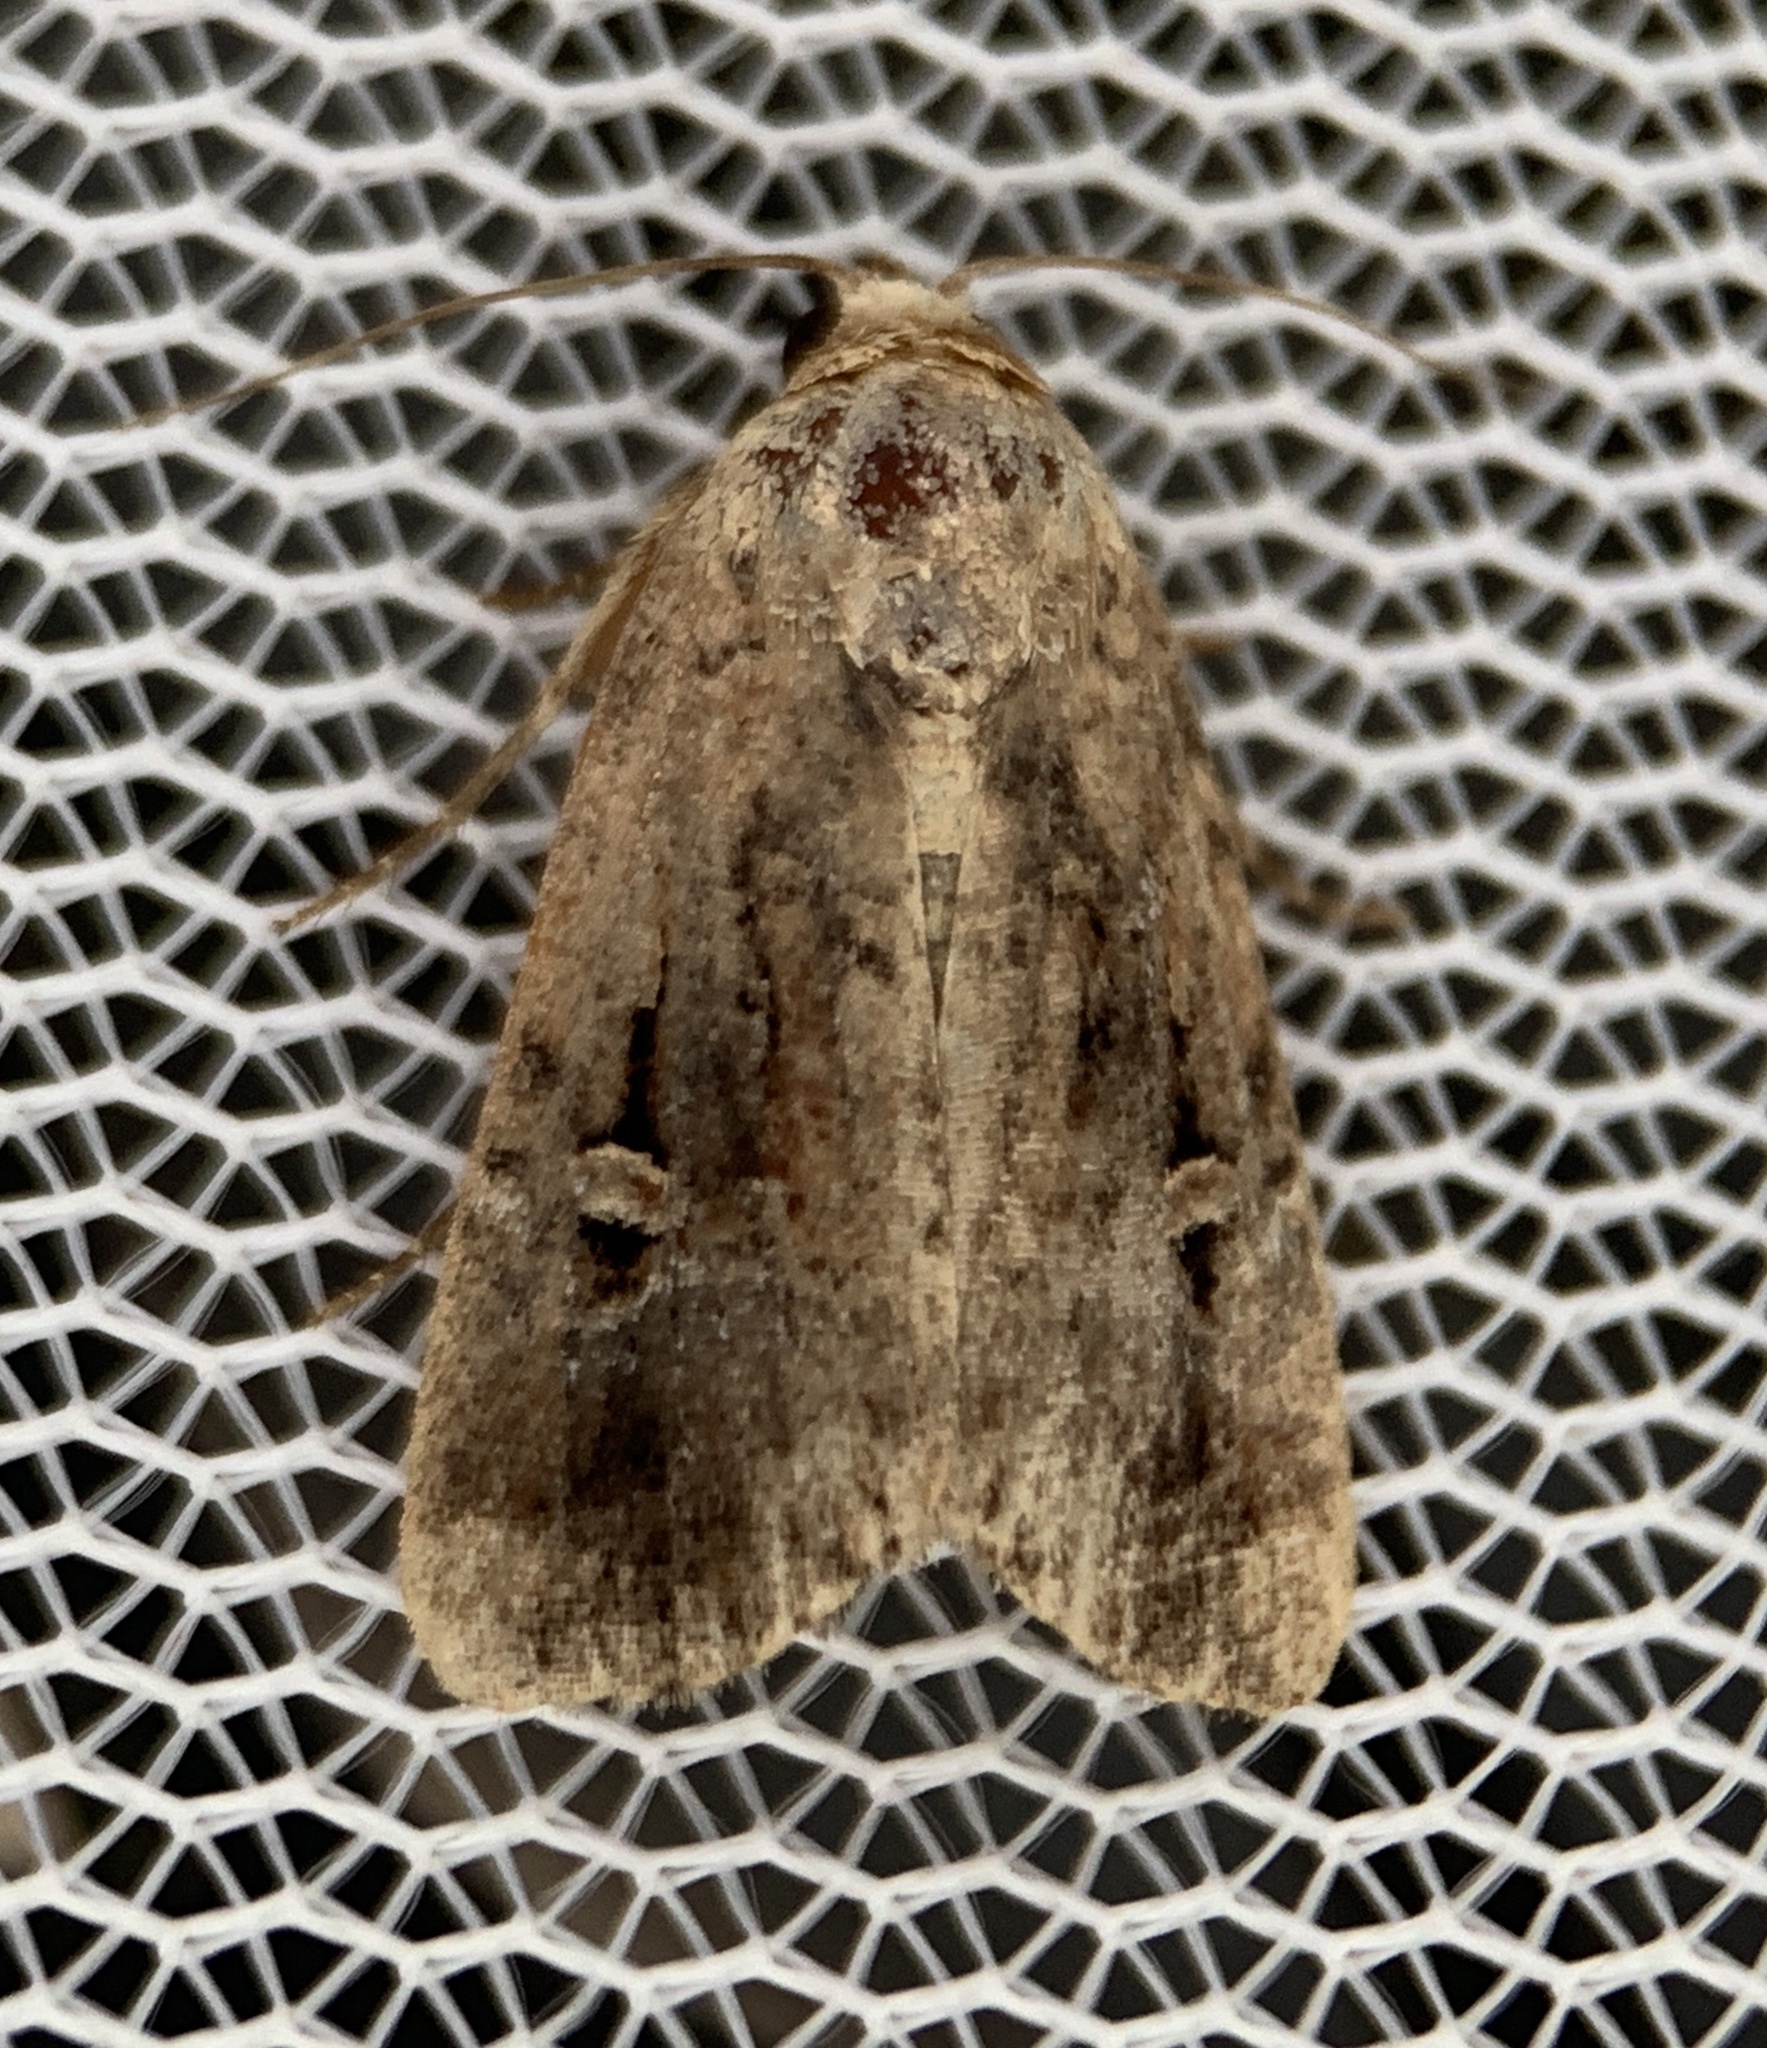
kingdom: Animalia
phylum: Arthropoda
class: Insecta
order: Lepidoptera
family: Noctuidae
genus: Elaphria
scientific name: Elaphria nucicolora
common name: Sugarcane midget moth
